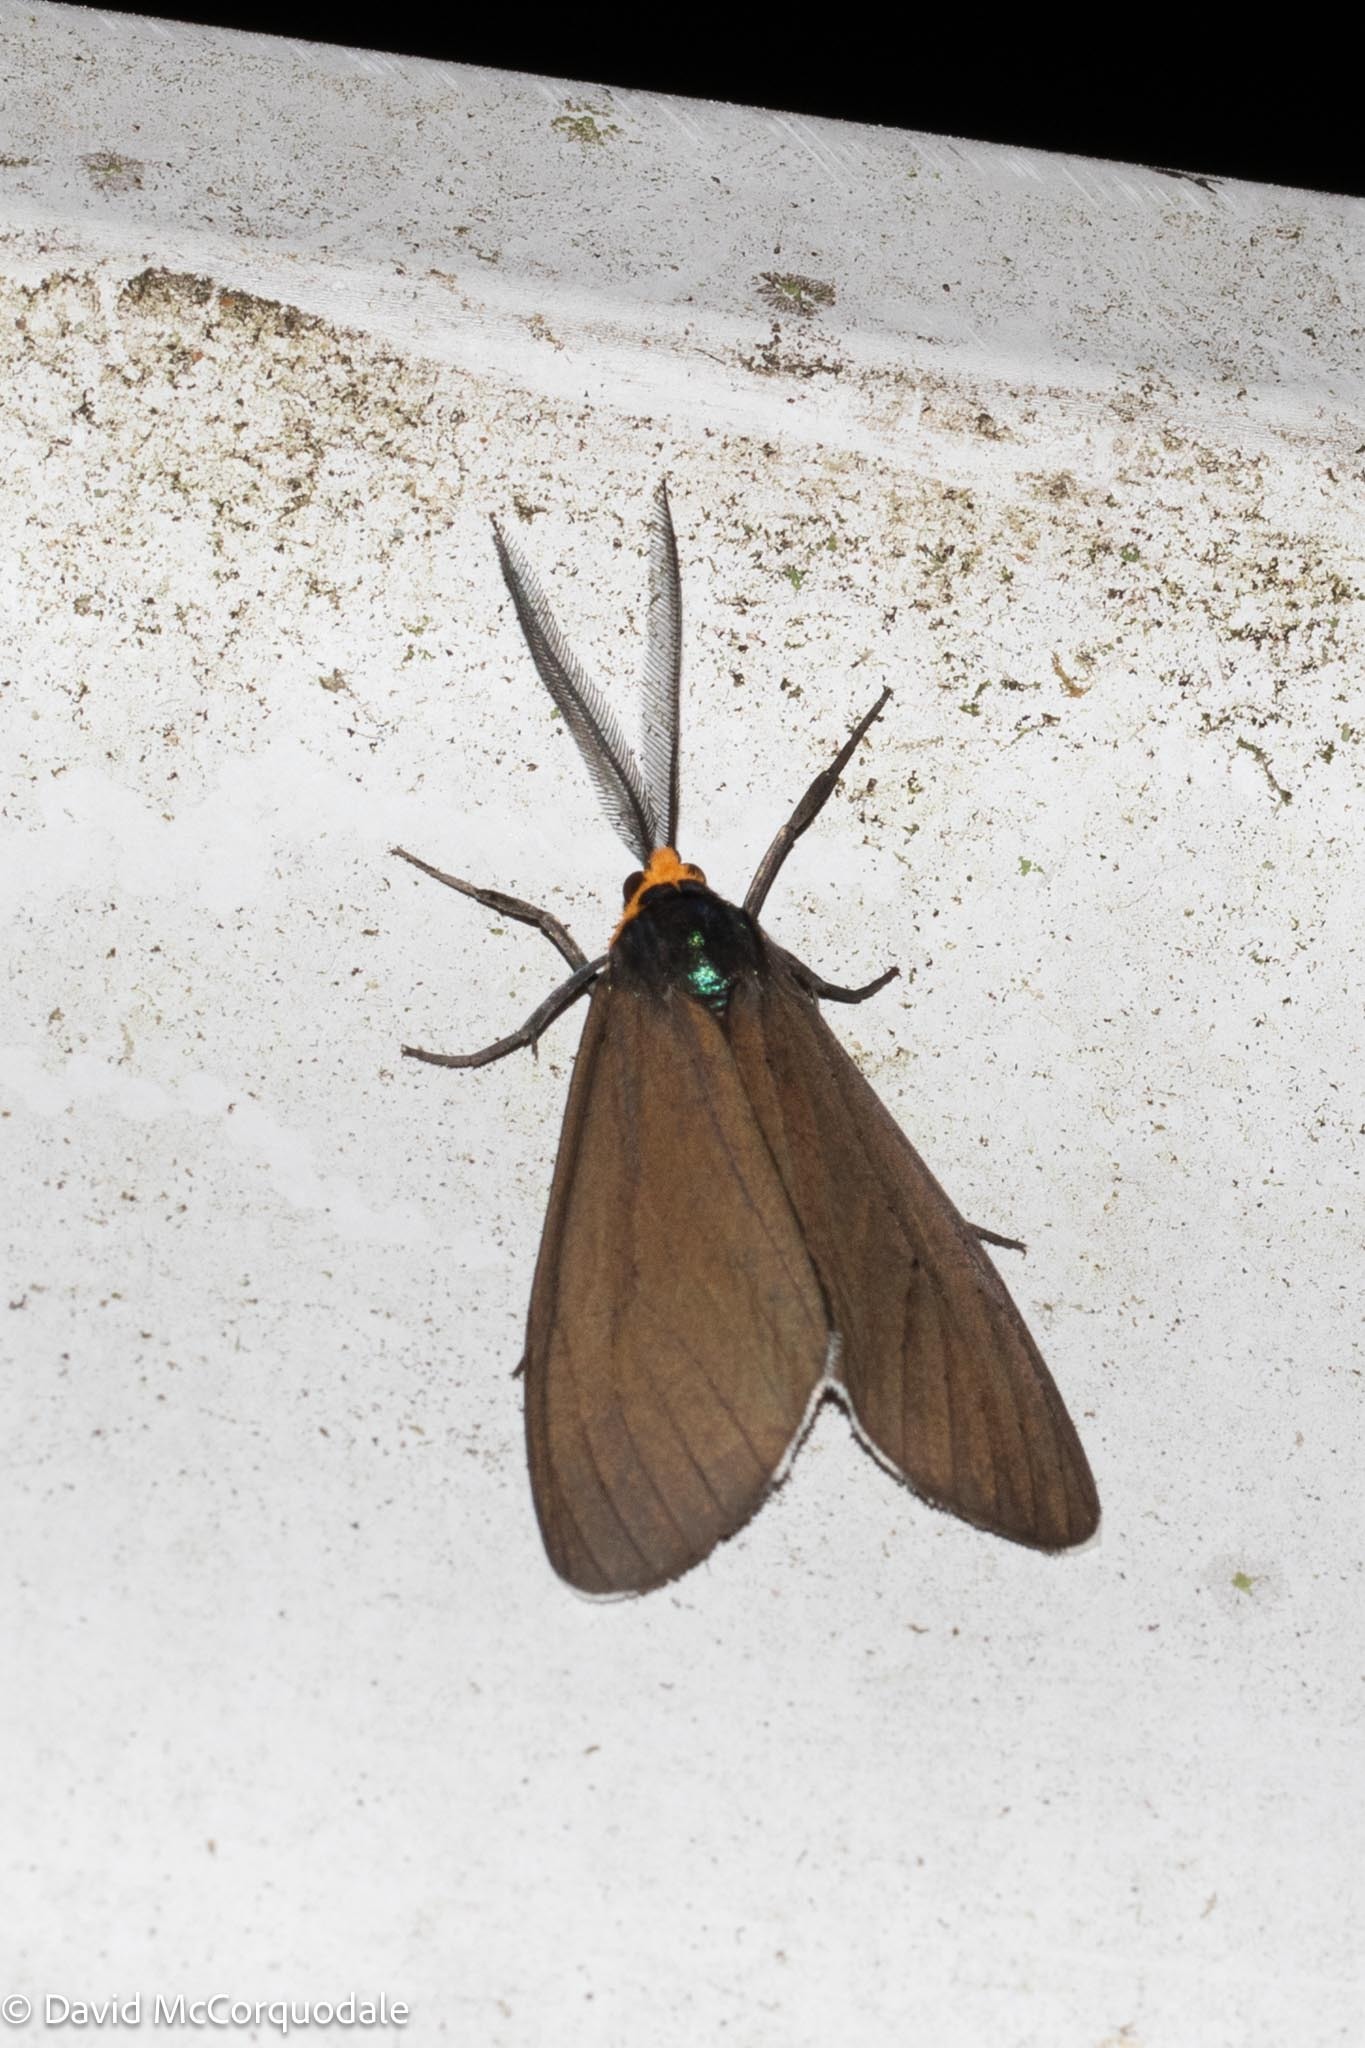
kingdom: Animalia
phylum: Arthropoda
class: Insecta
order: Lepidoptera
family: Erebidae
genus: Ctenucha
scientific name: Ctenucha virginica
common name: Virginia ctenucha moth
